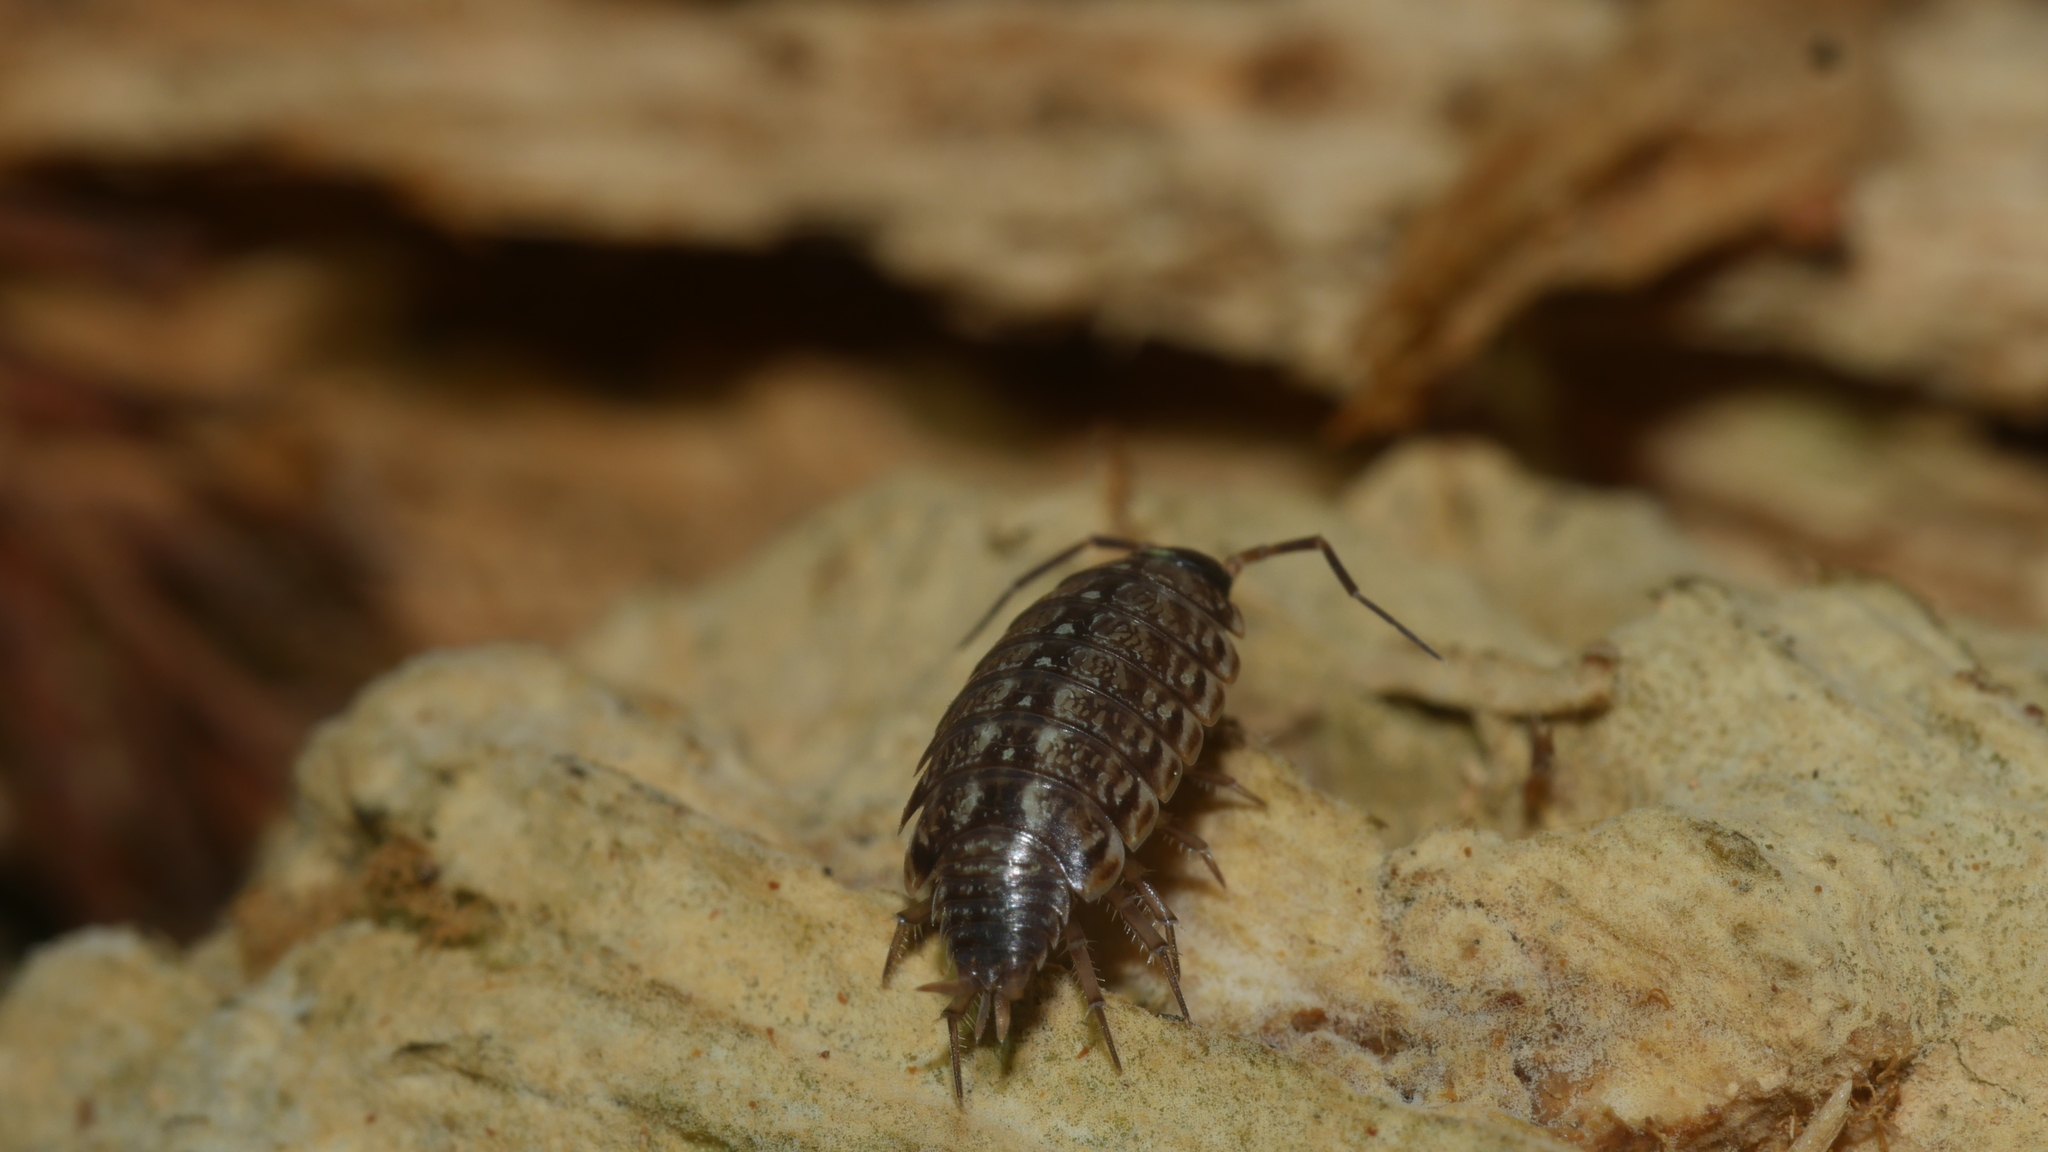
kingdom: Animalia
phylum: Arthropoda
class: Malacostraca
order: Isopoda
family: Philosciidae
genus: Philoscia
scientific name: Philoscia muscorum
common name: Common striped woodlouse
